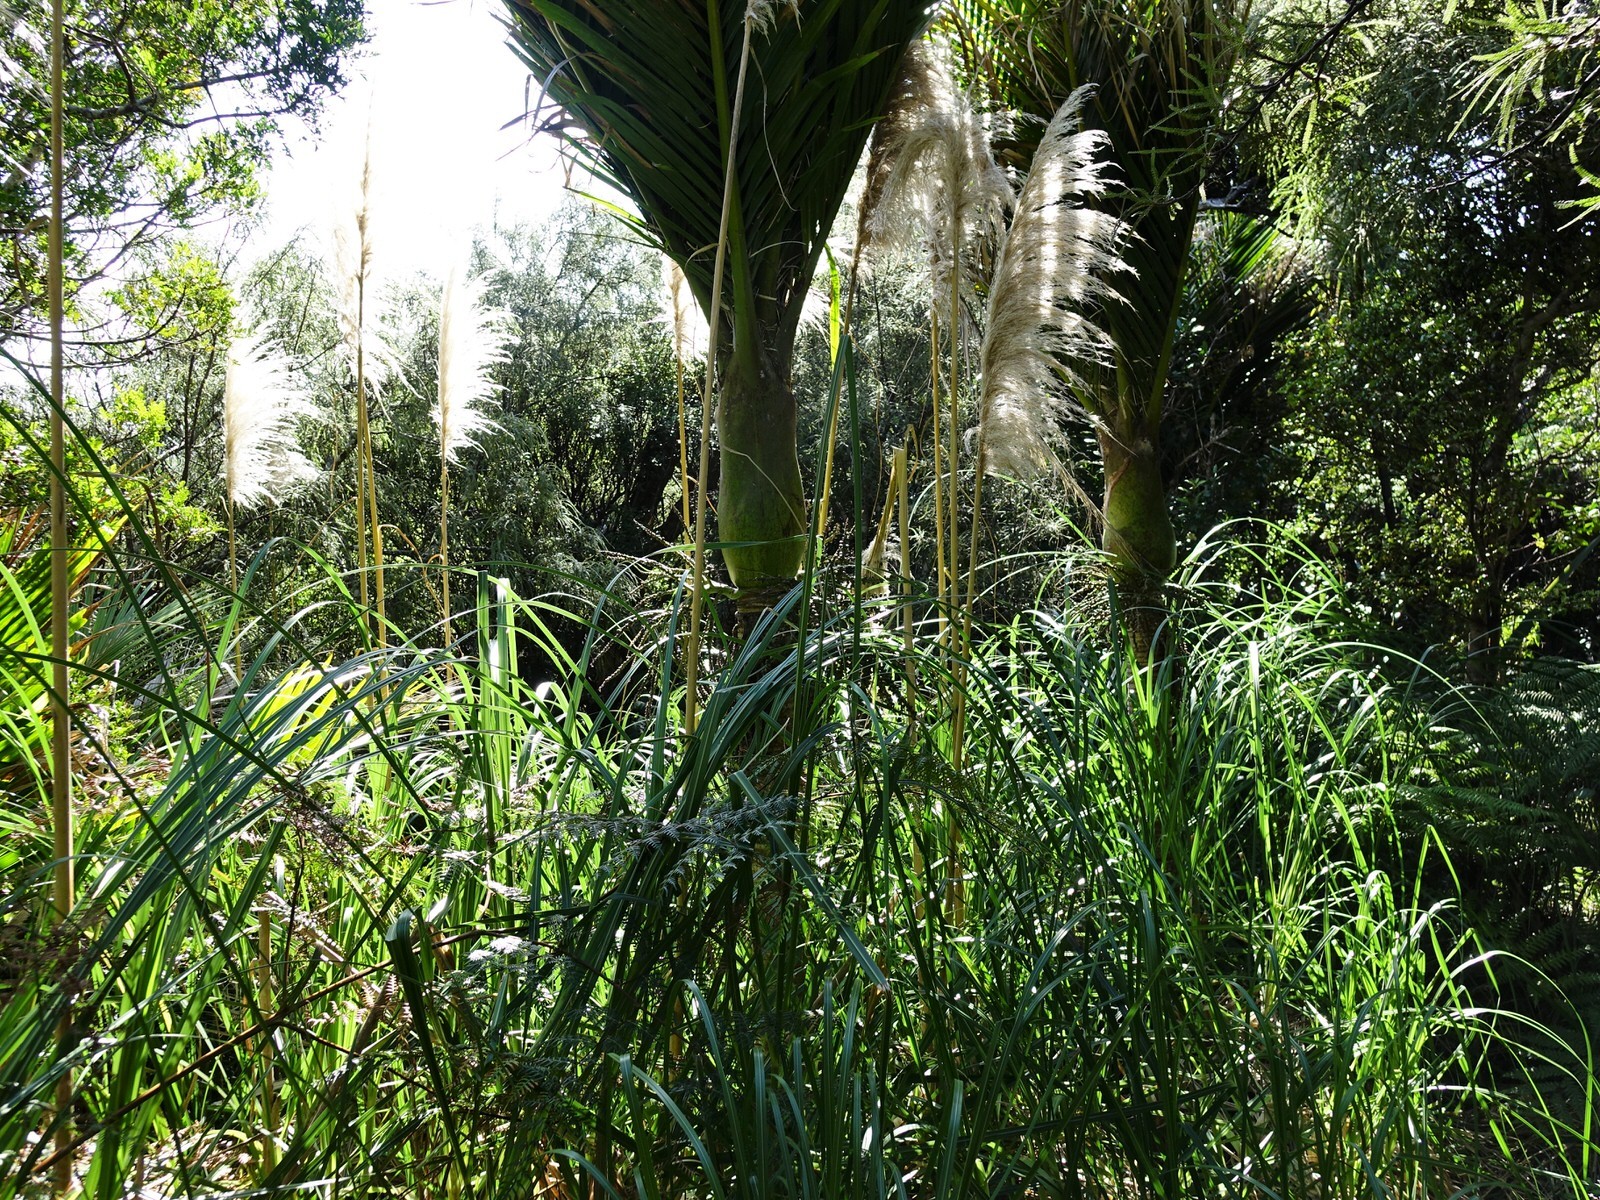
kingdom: Plantae
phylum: Tracheophyta
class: Liliopsida
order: Poales
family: Poaceae
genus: Cortaderia
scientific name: Cortaderia selloana
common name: Uruguayan pampas grass
